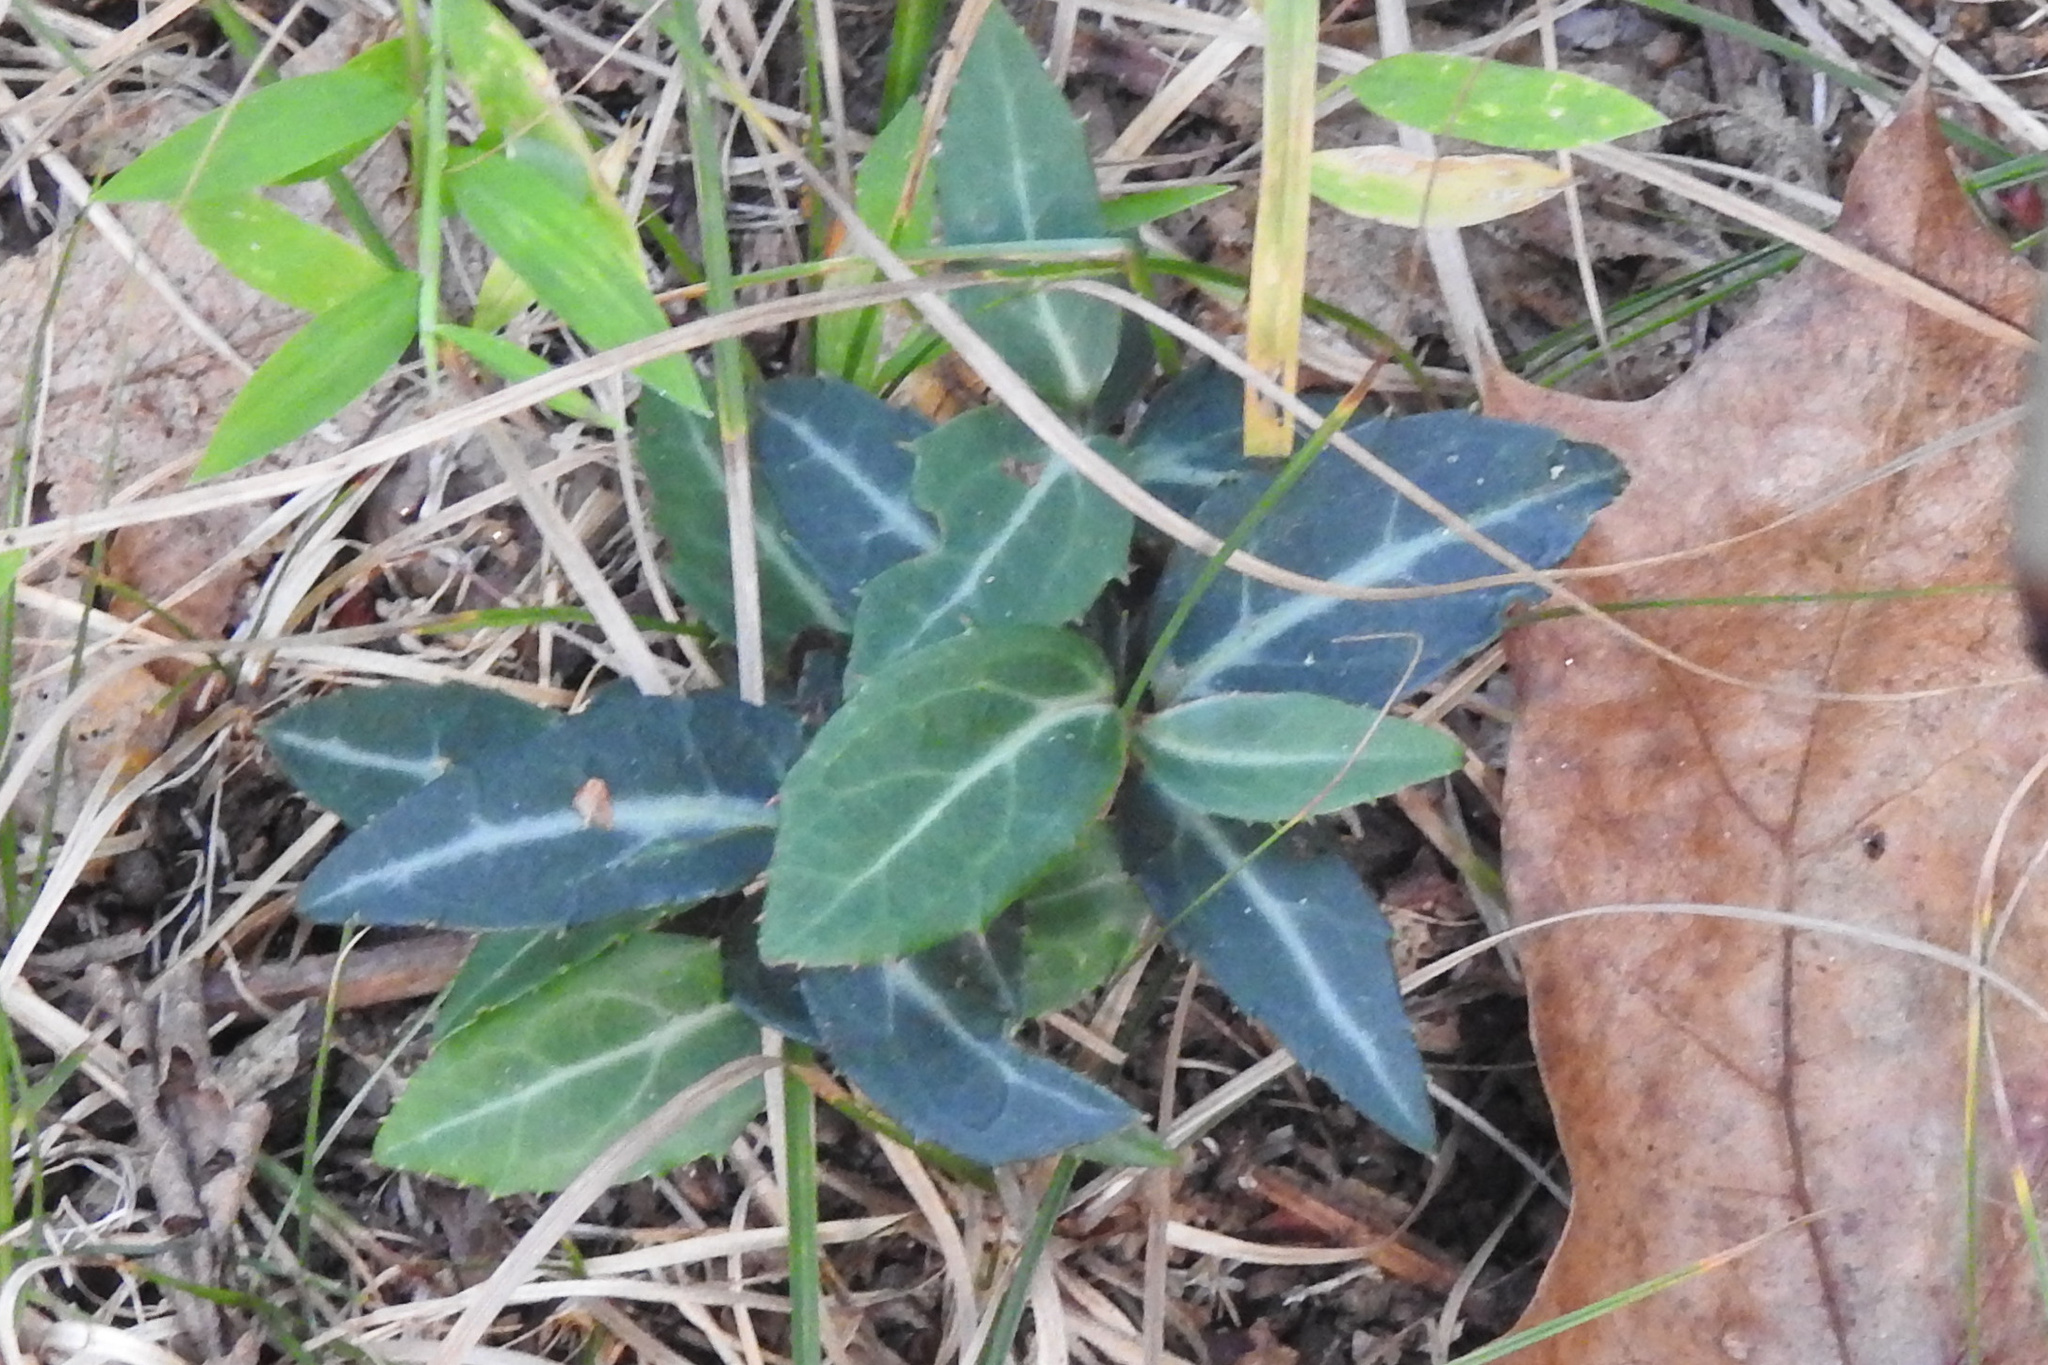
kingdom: Plantae
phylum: Tracheophyta
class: Magnoliopsida
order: Ericales
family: Ericaceae
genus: Chimaphila
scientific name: Chimaphila maculata
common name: Spotted pipsissewa
